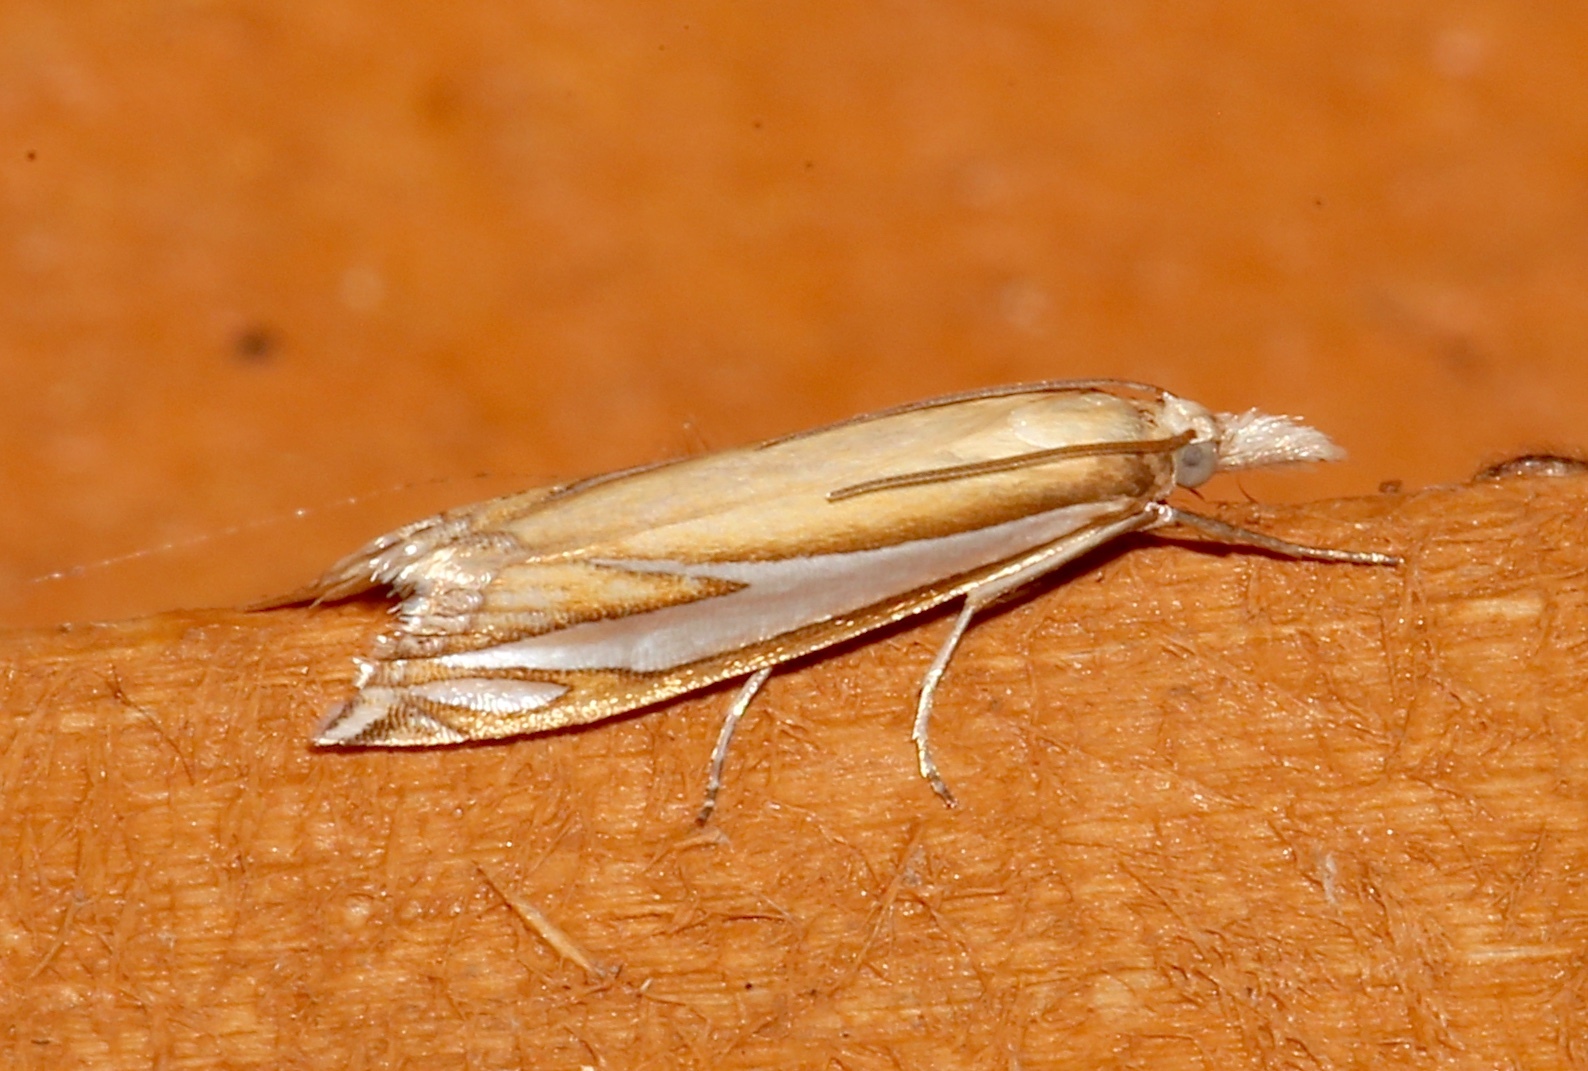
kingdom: Animalia
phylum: Arthropoda
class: Insecta
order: Lepidoptera
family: Crambidae
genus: Crambus
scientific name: Crambus satrapellus
